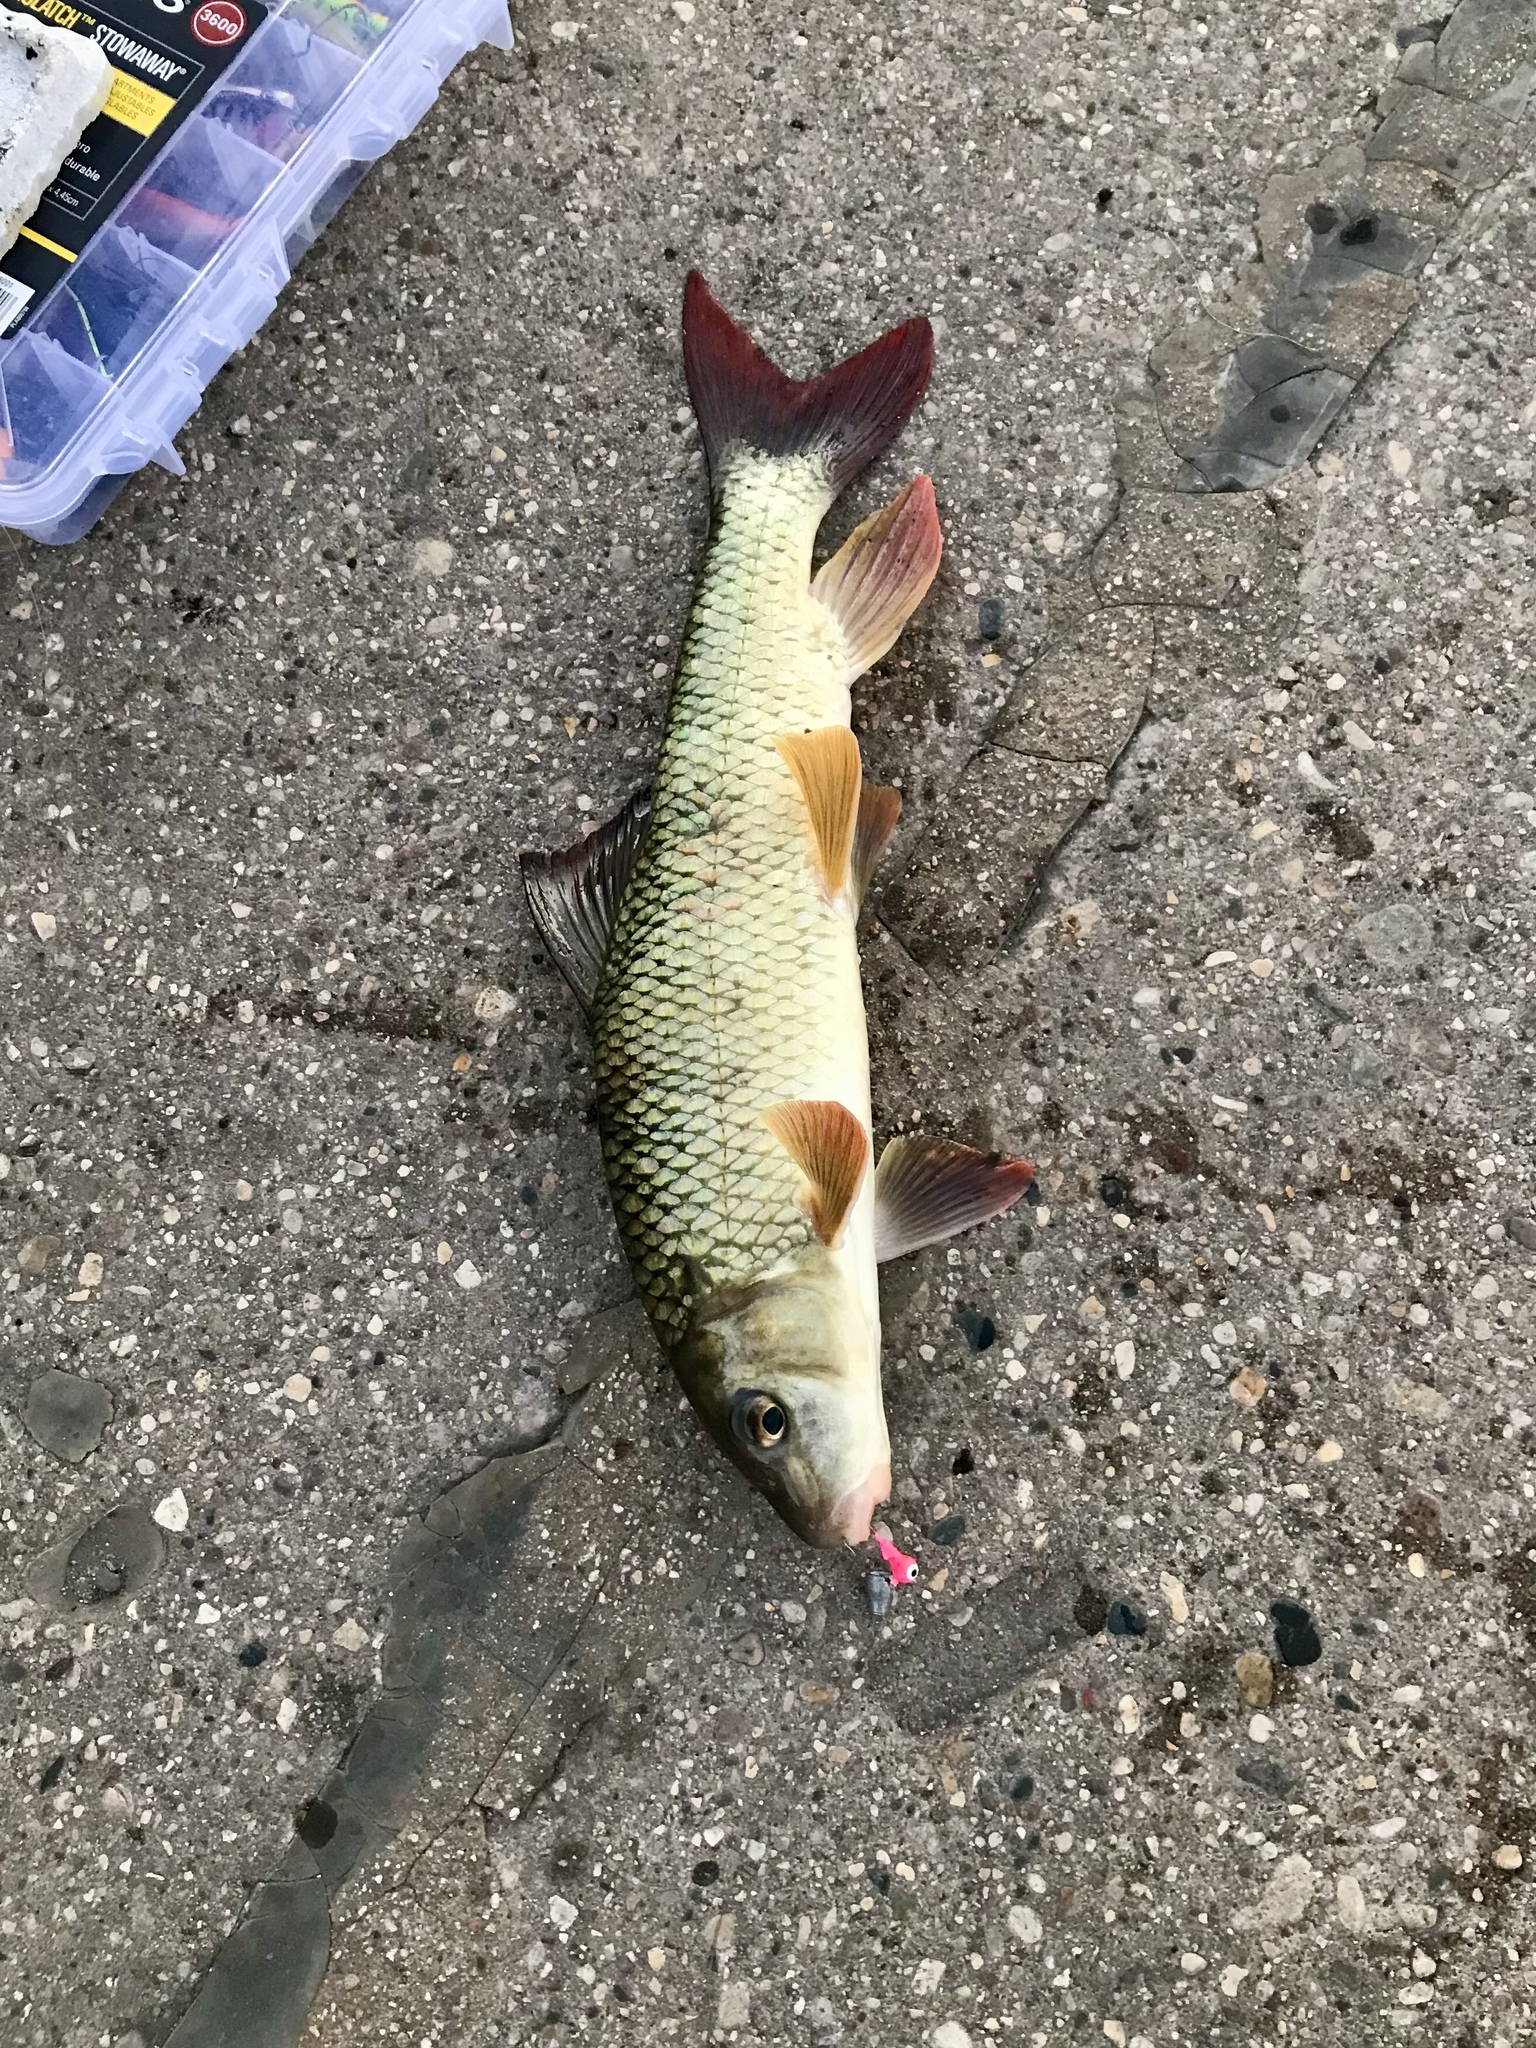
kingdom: Animalia
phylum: Chordata
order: Cypriniformes
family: Catostomidae
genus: Moxostoma
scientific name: Moxostoma macrolepidotum
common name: Shorthead redhorse
